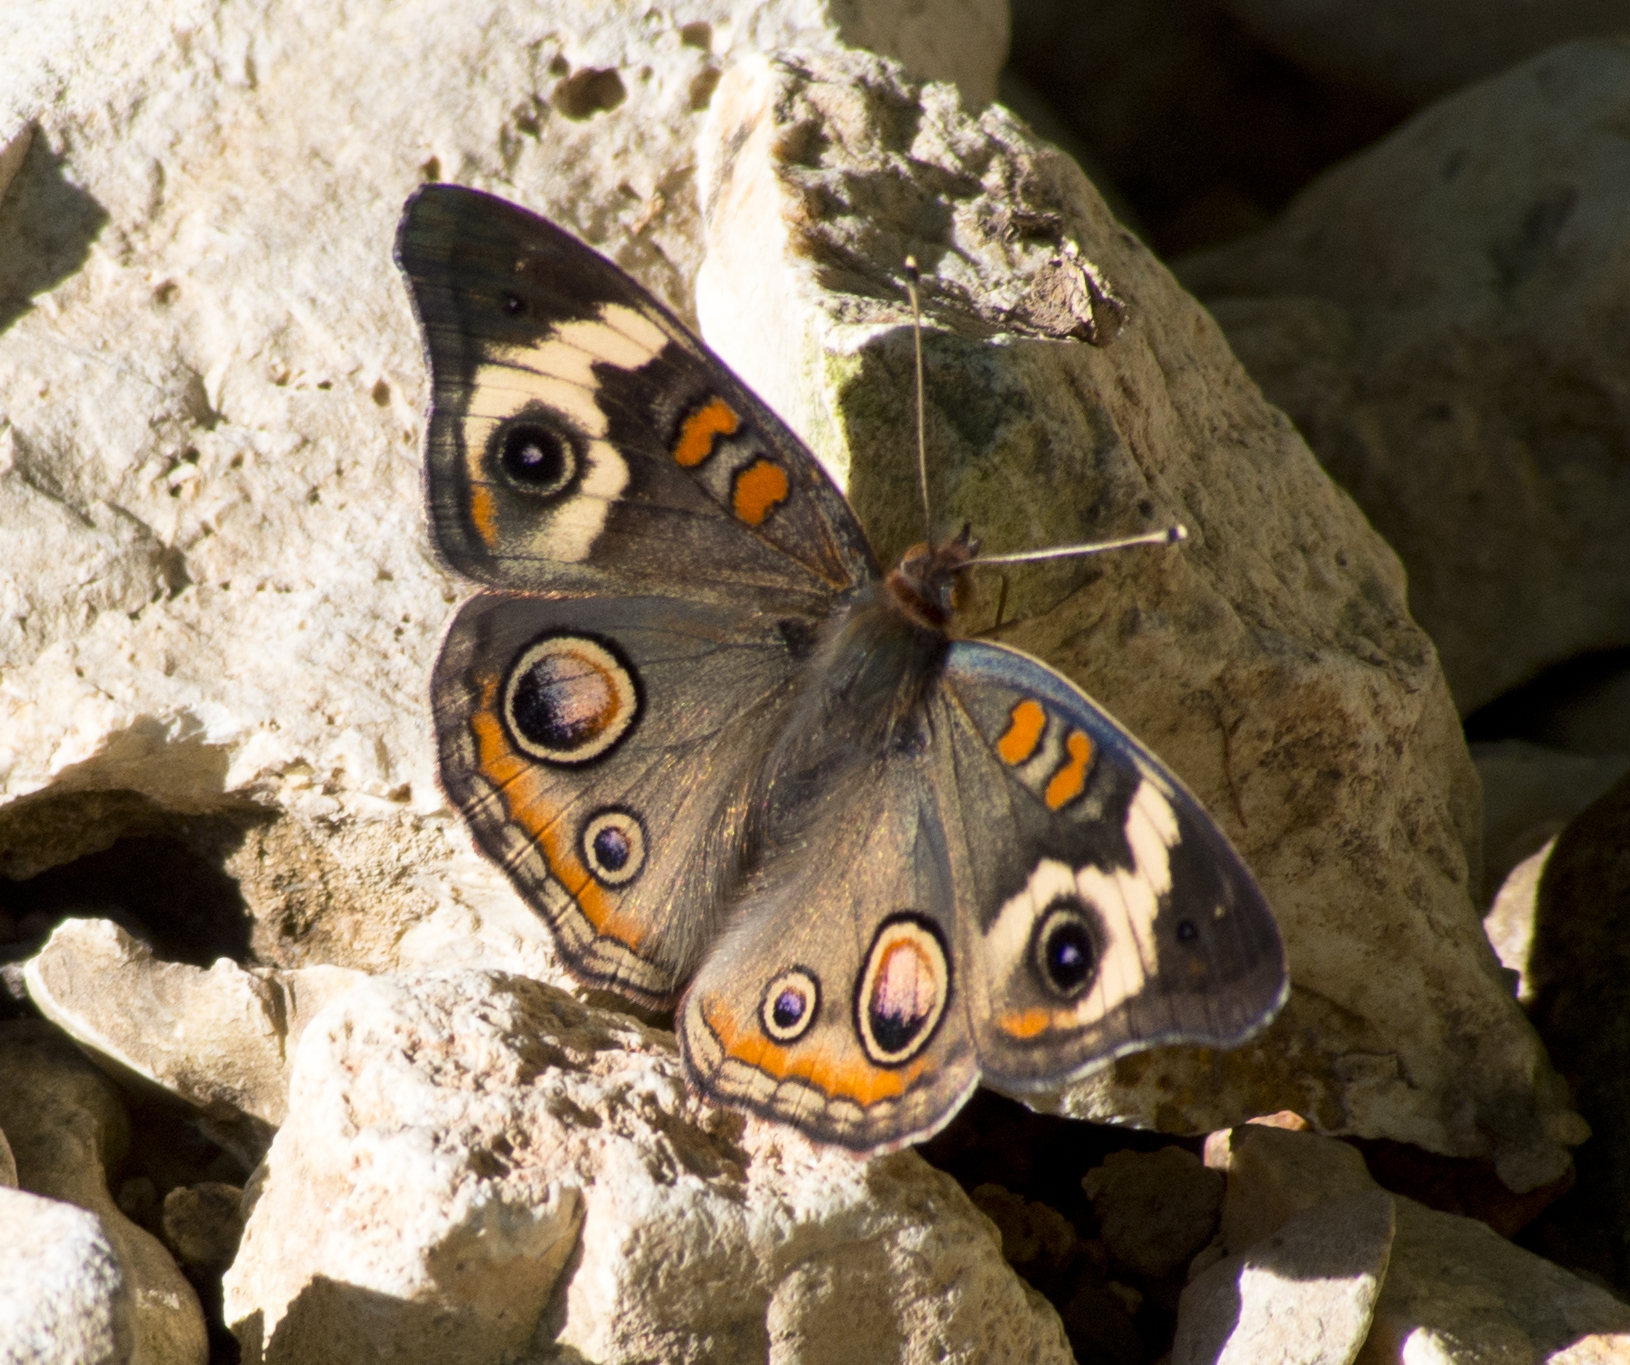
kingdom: Animalia
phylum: Arthropoda
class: Insecta
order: Lepidoptera
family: Nymphalidae
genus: Junonia
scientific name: Junonia coenia
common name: Common buckeye
